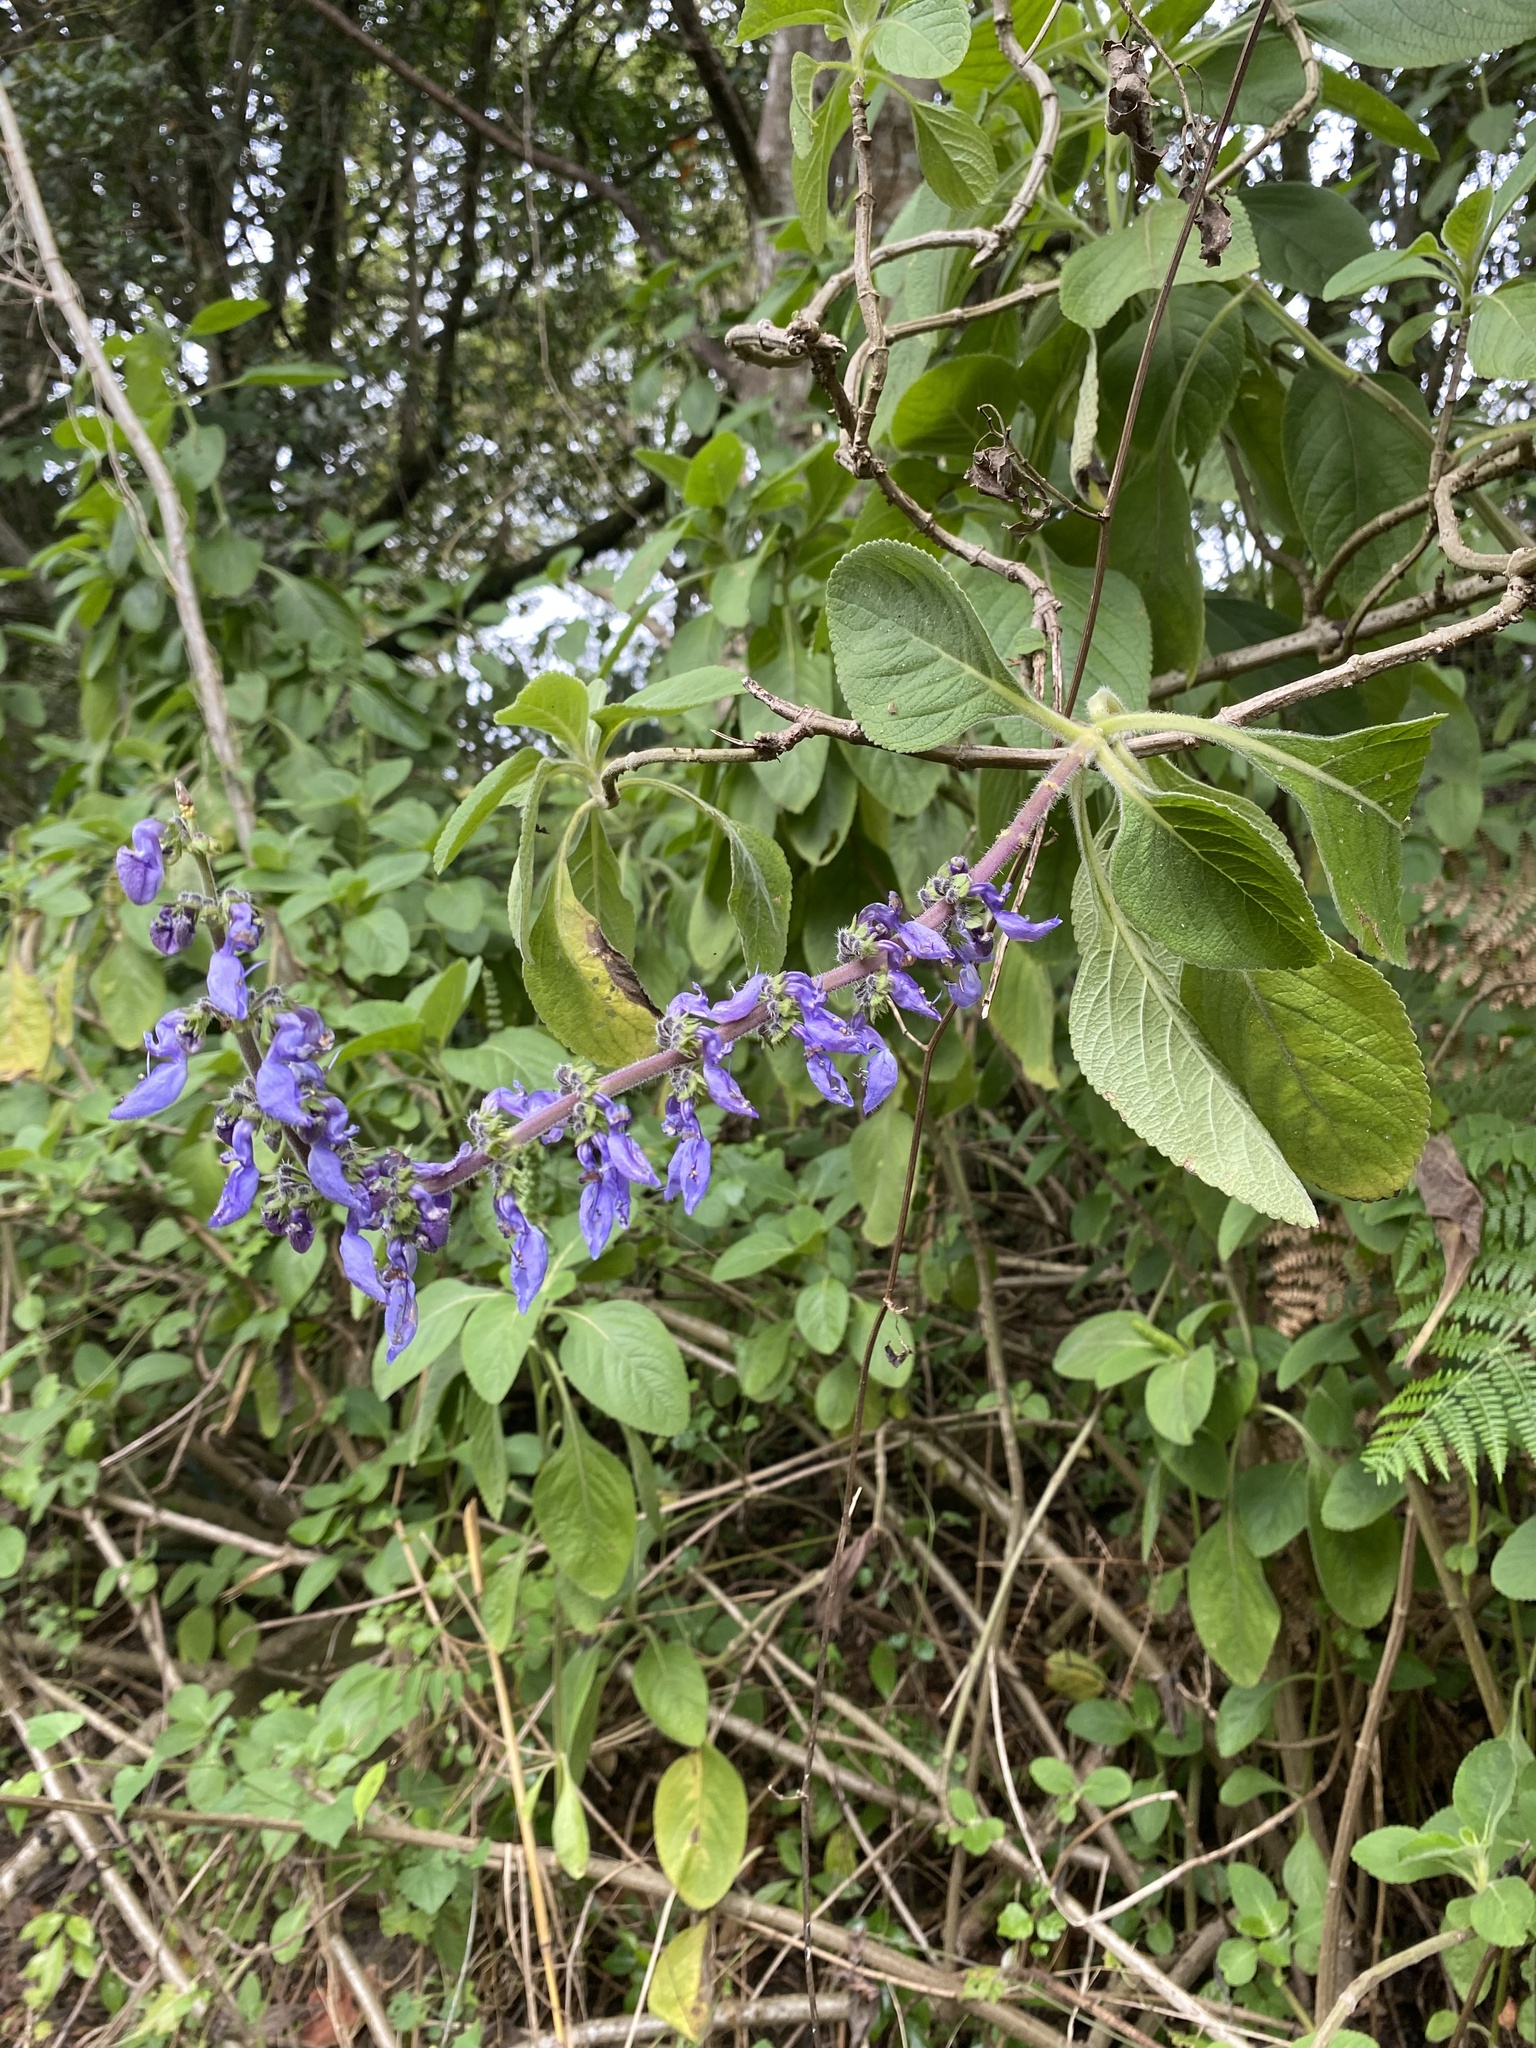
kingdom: Plantae
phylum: Tracheophyta
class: Magnoliopsida
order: Lamiales
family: Lamiaceae
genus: Coleus
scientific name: Coleus barbatus
